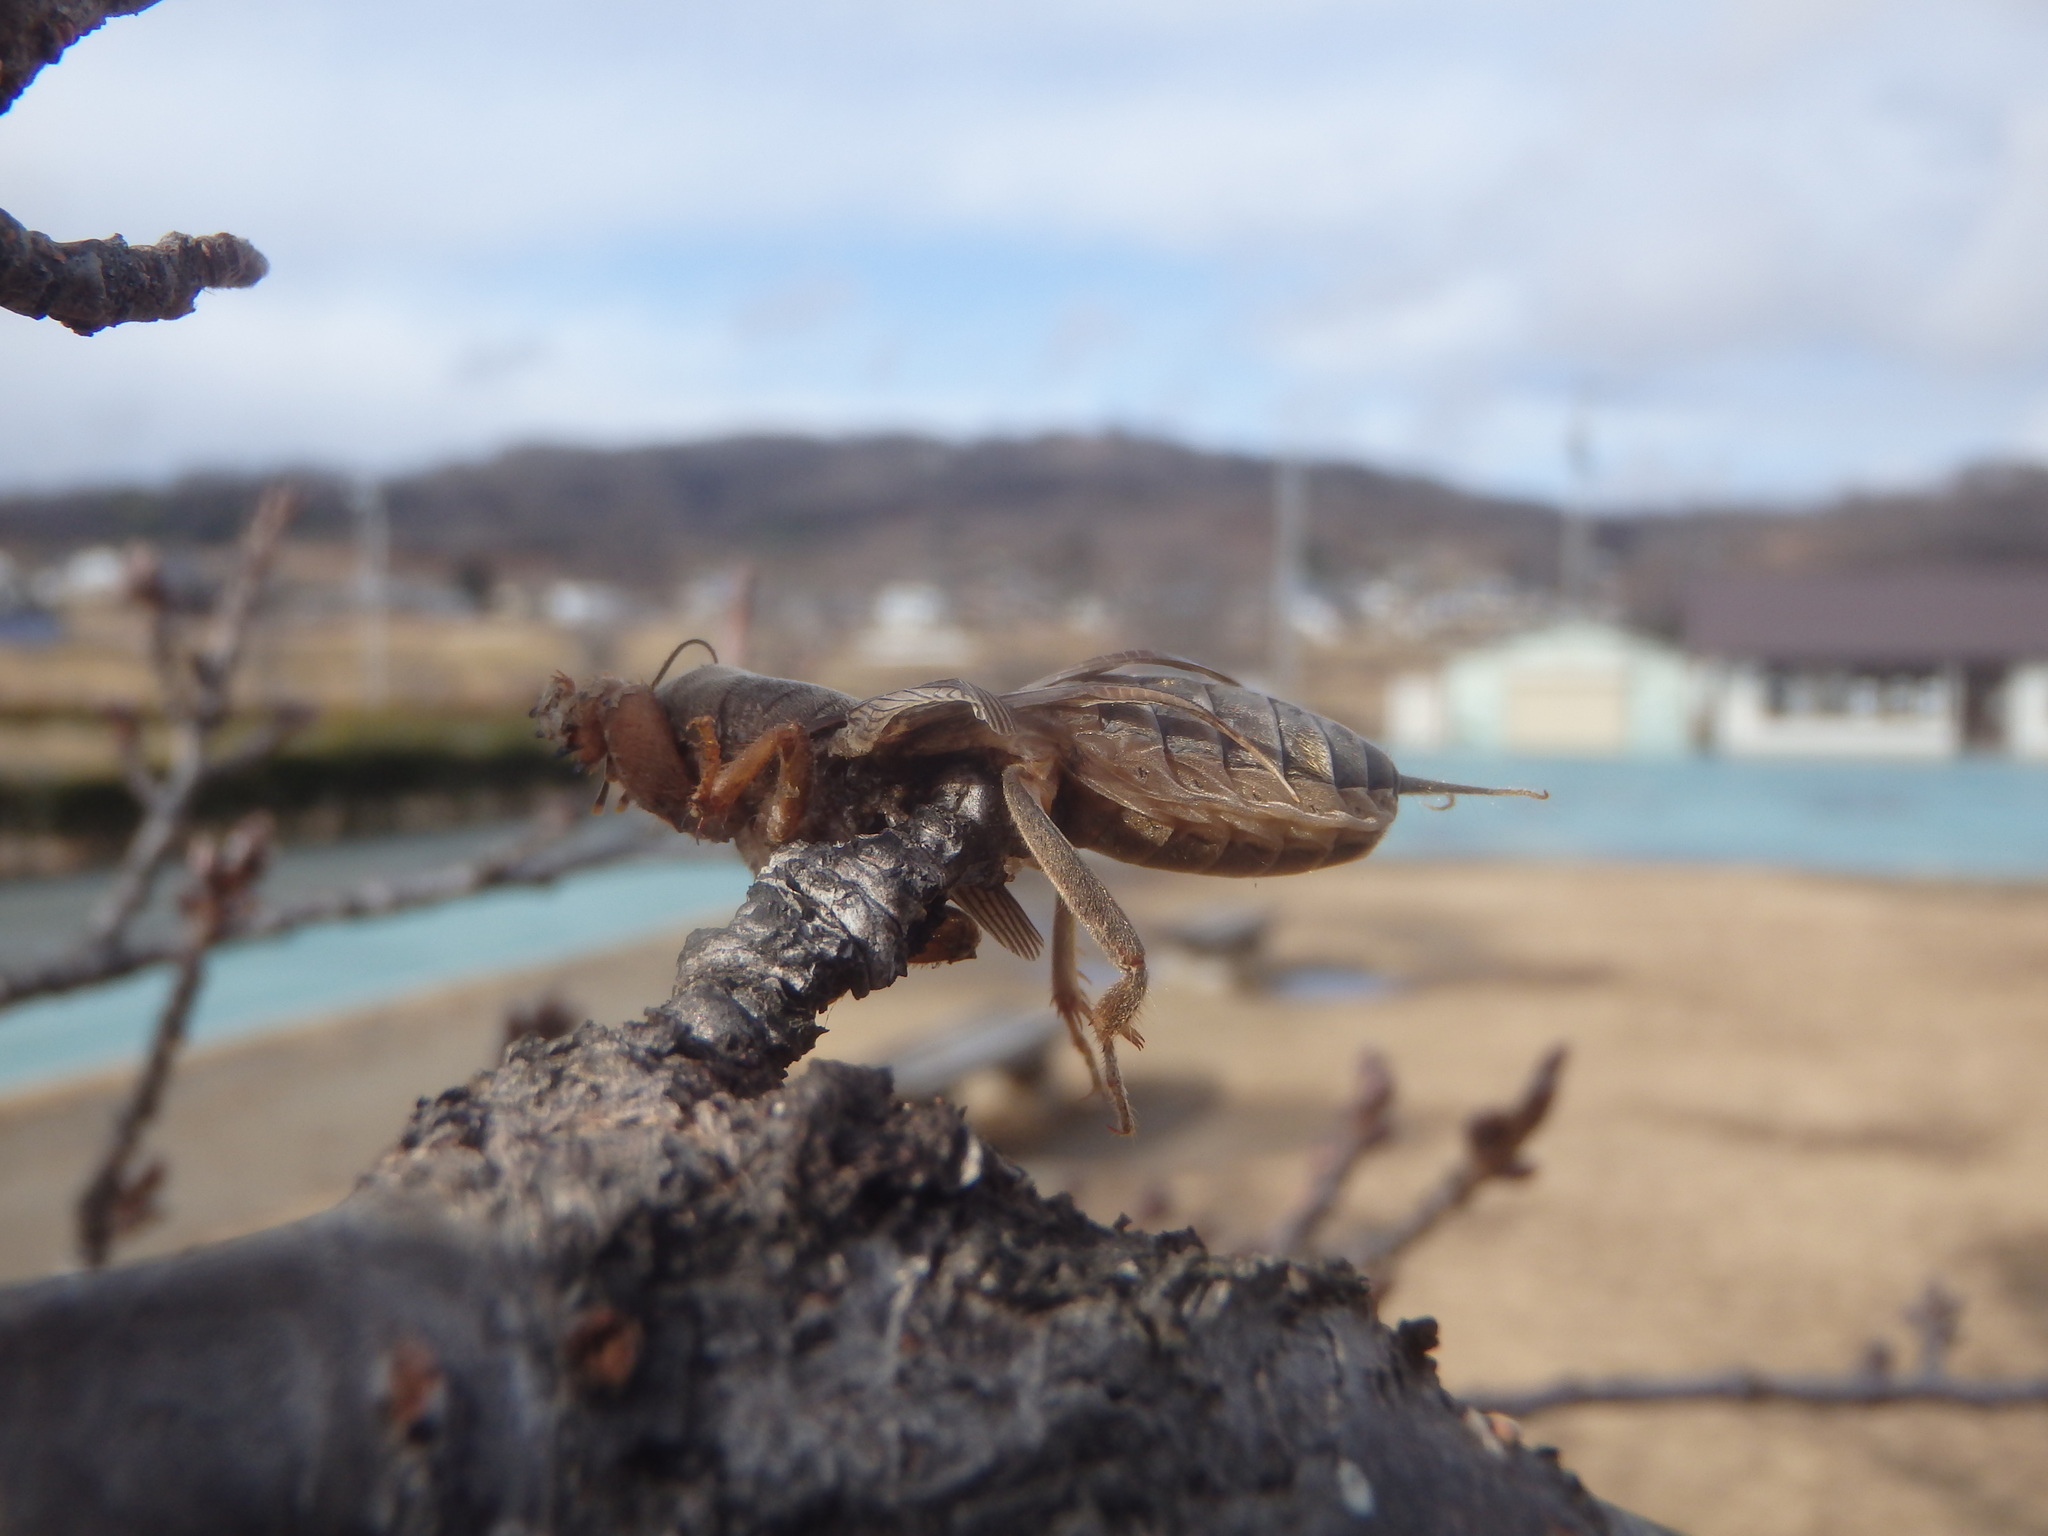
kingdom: Animalia
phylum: Arthropoda
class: Insecta
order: Orthoptera
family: Gryllotalpidae
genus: Gryllotalpa
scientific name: Gryllotalpa orientalis
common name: Grasshopper
